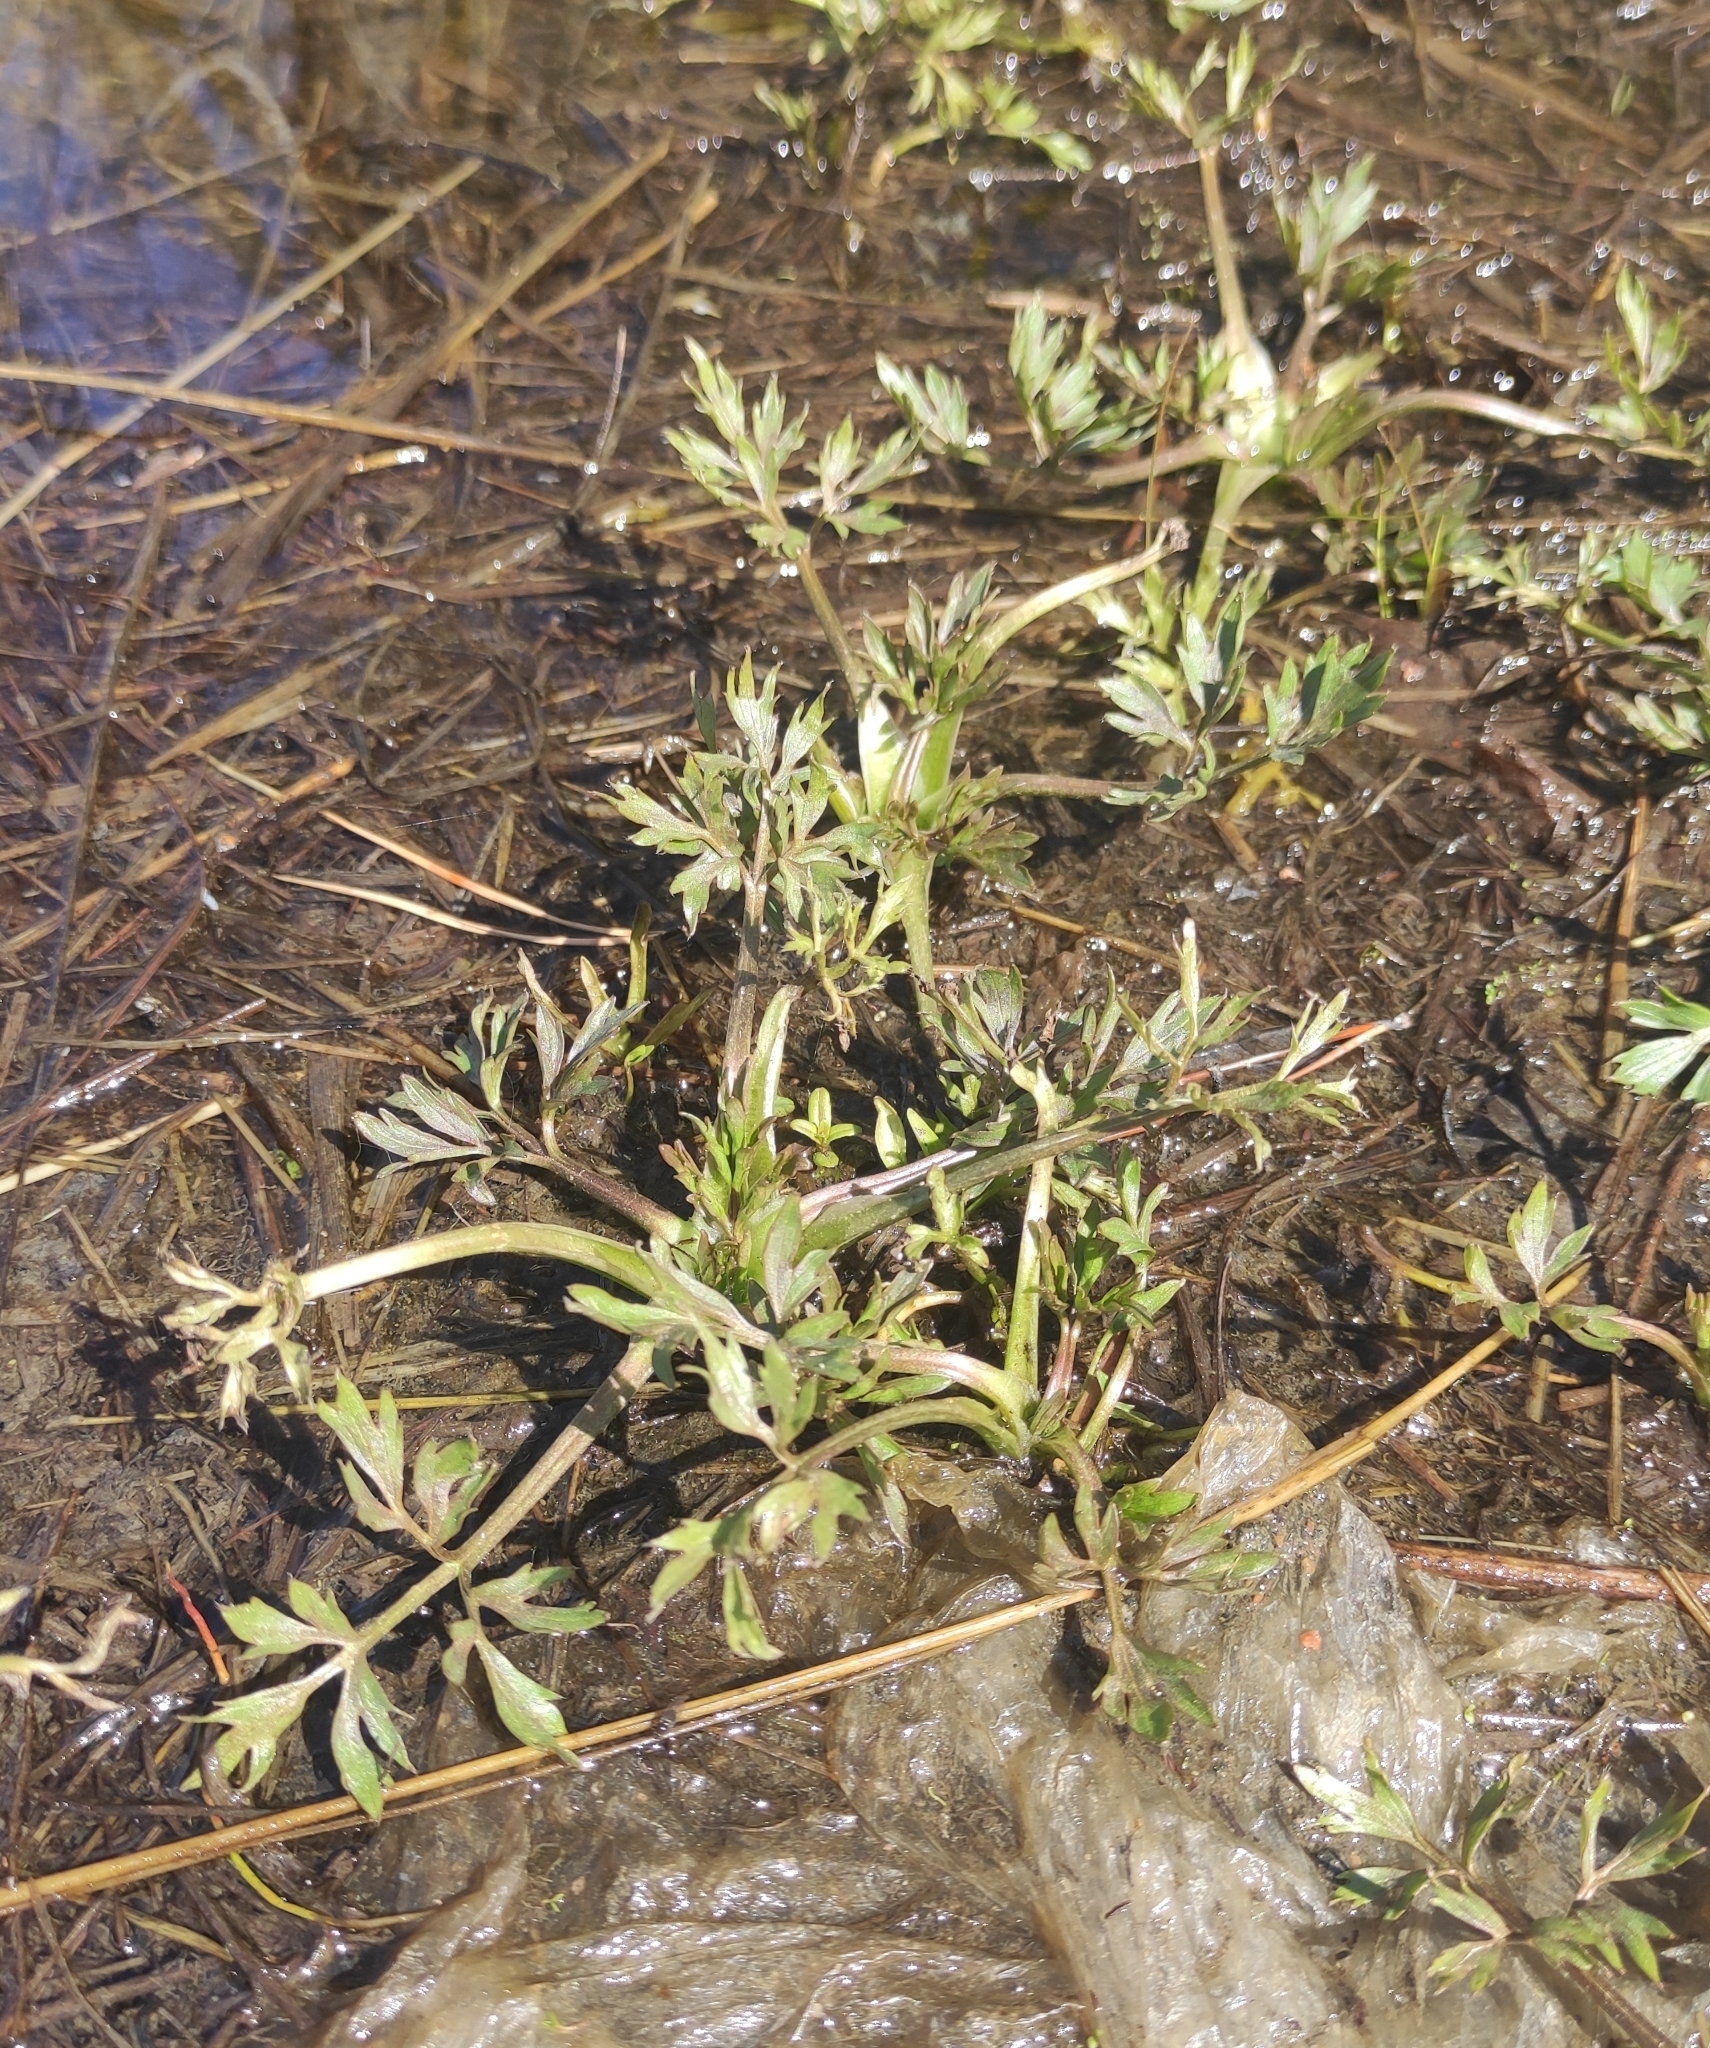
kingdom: Plantae
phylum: Tracheophyta
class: Magnoliopsida
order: Ranunculales
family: Ranunculaceae
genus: Ranunculus
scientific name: Ranunculus repens
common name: Creeping buttercup
